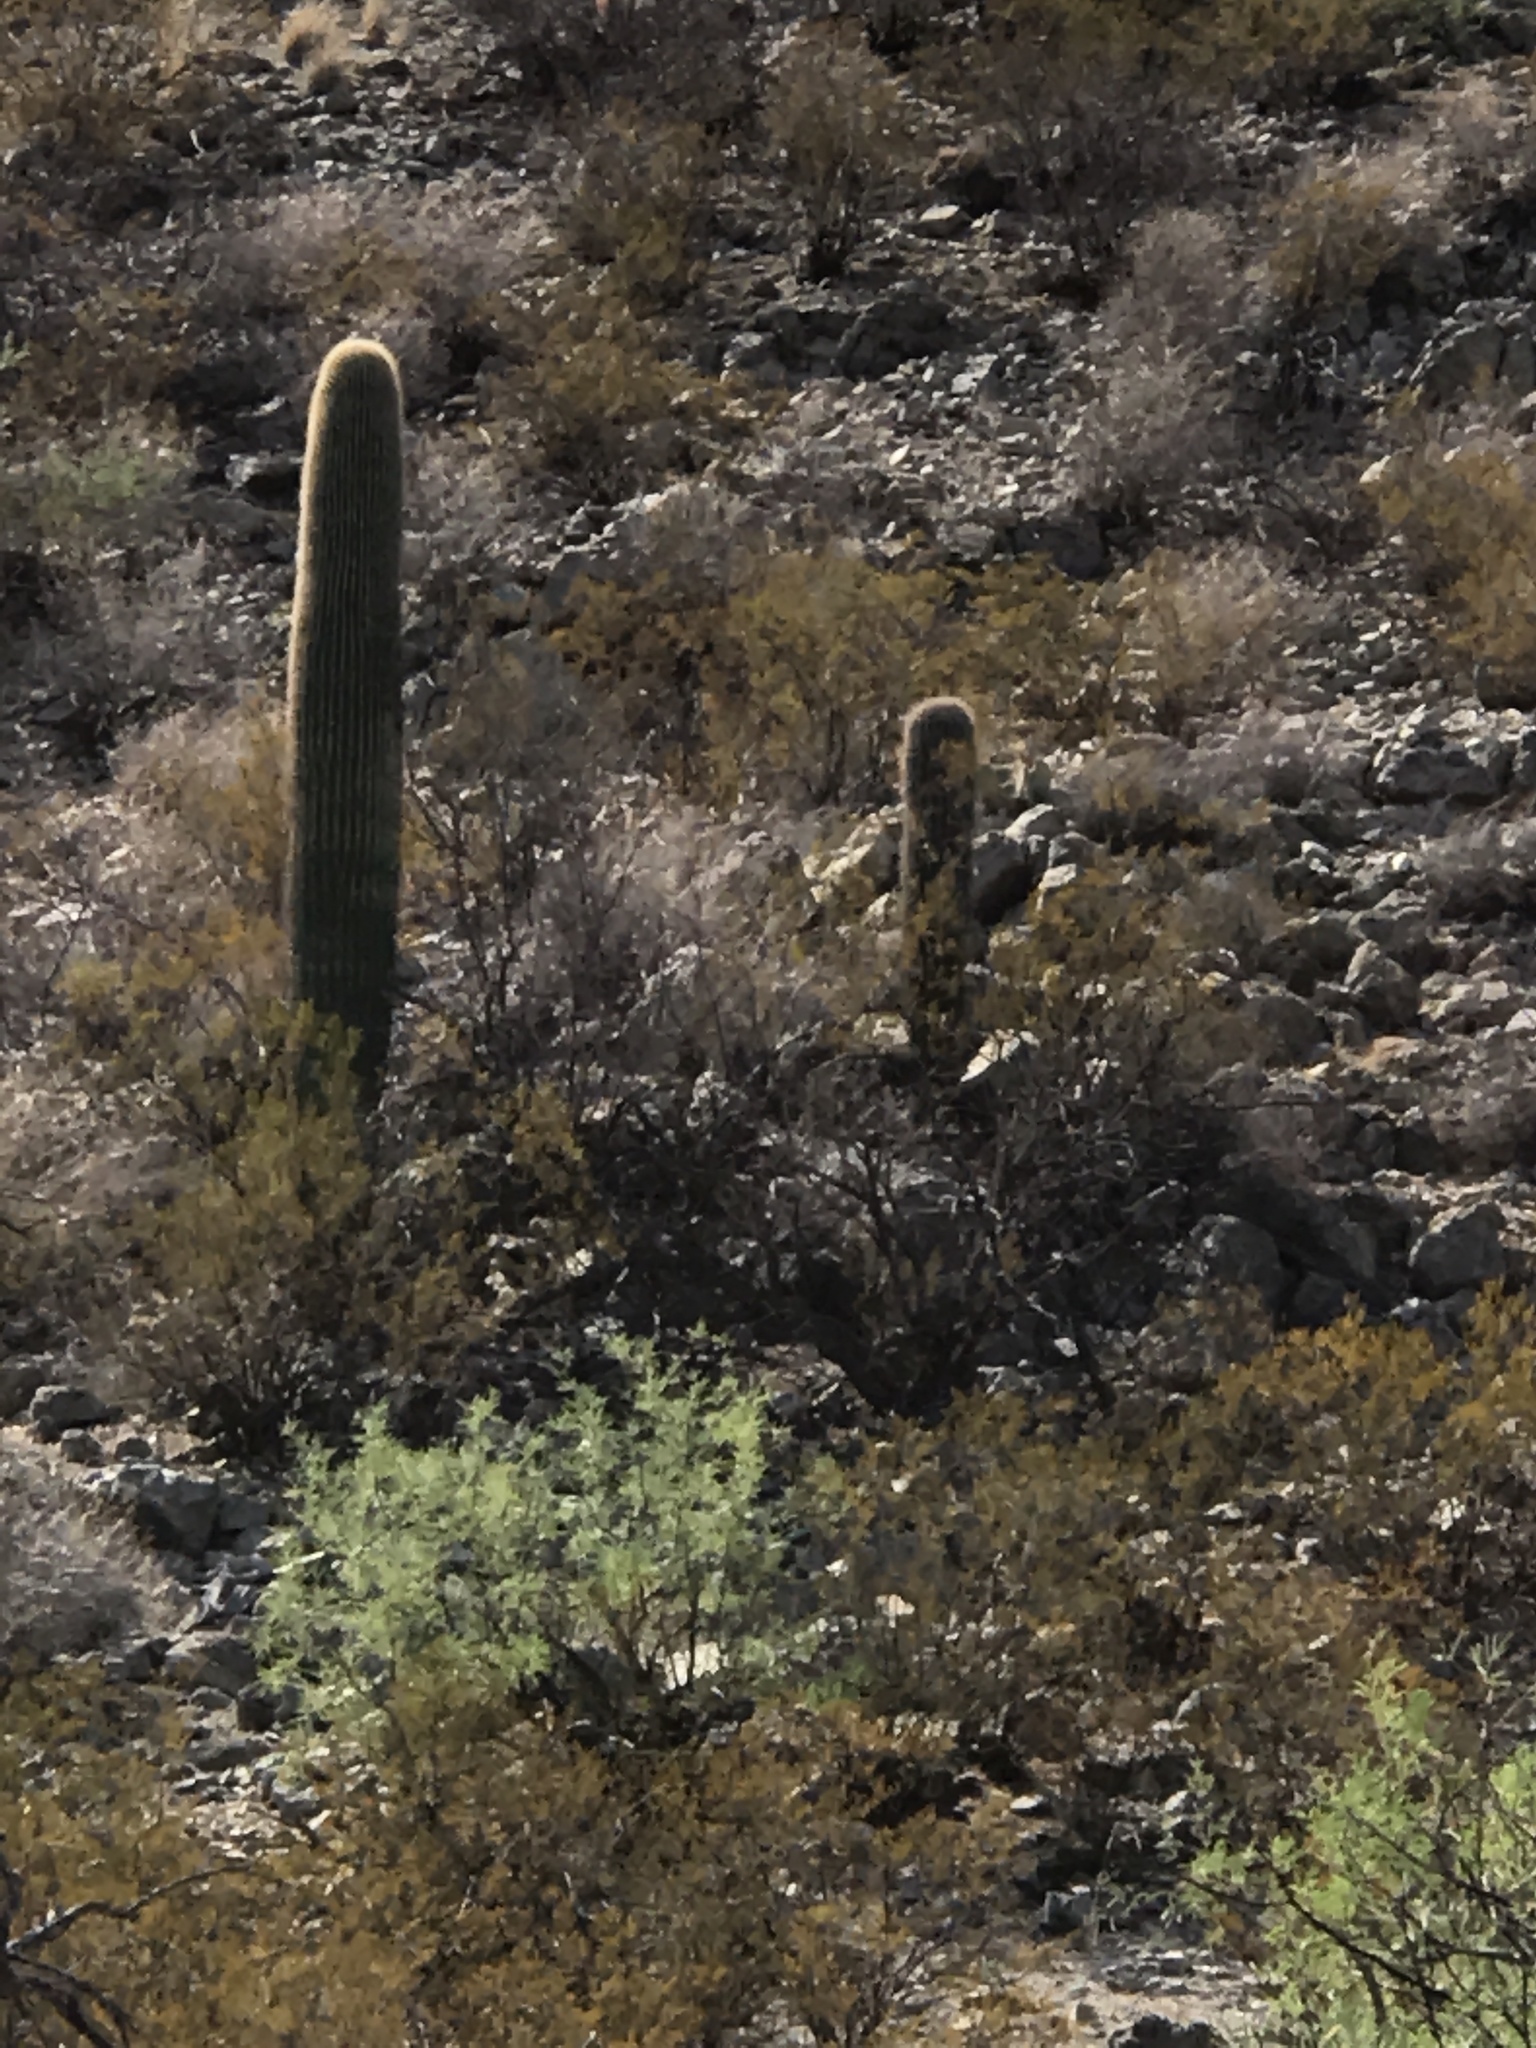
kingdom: Plantae
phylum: Tracheophyta
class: Magnoliopsida
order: Caryophyllales
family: Cactaceae
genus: Carnegiea
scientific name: Carnegiea gigantea
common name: Saguaro
